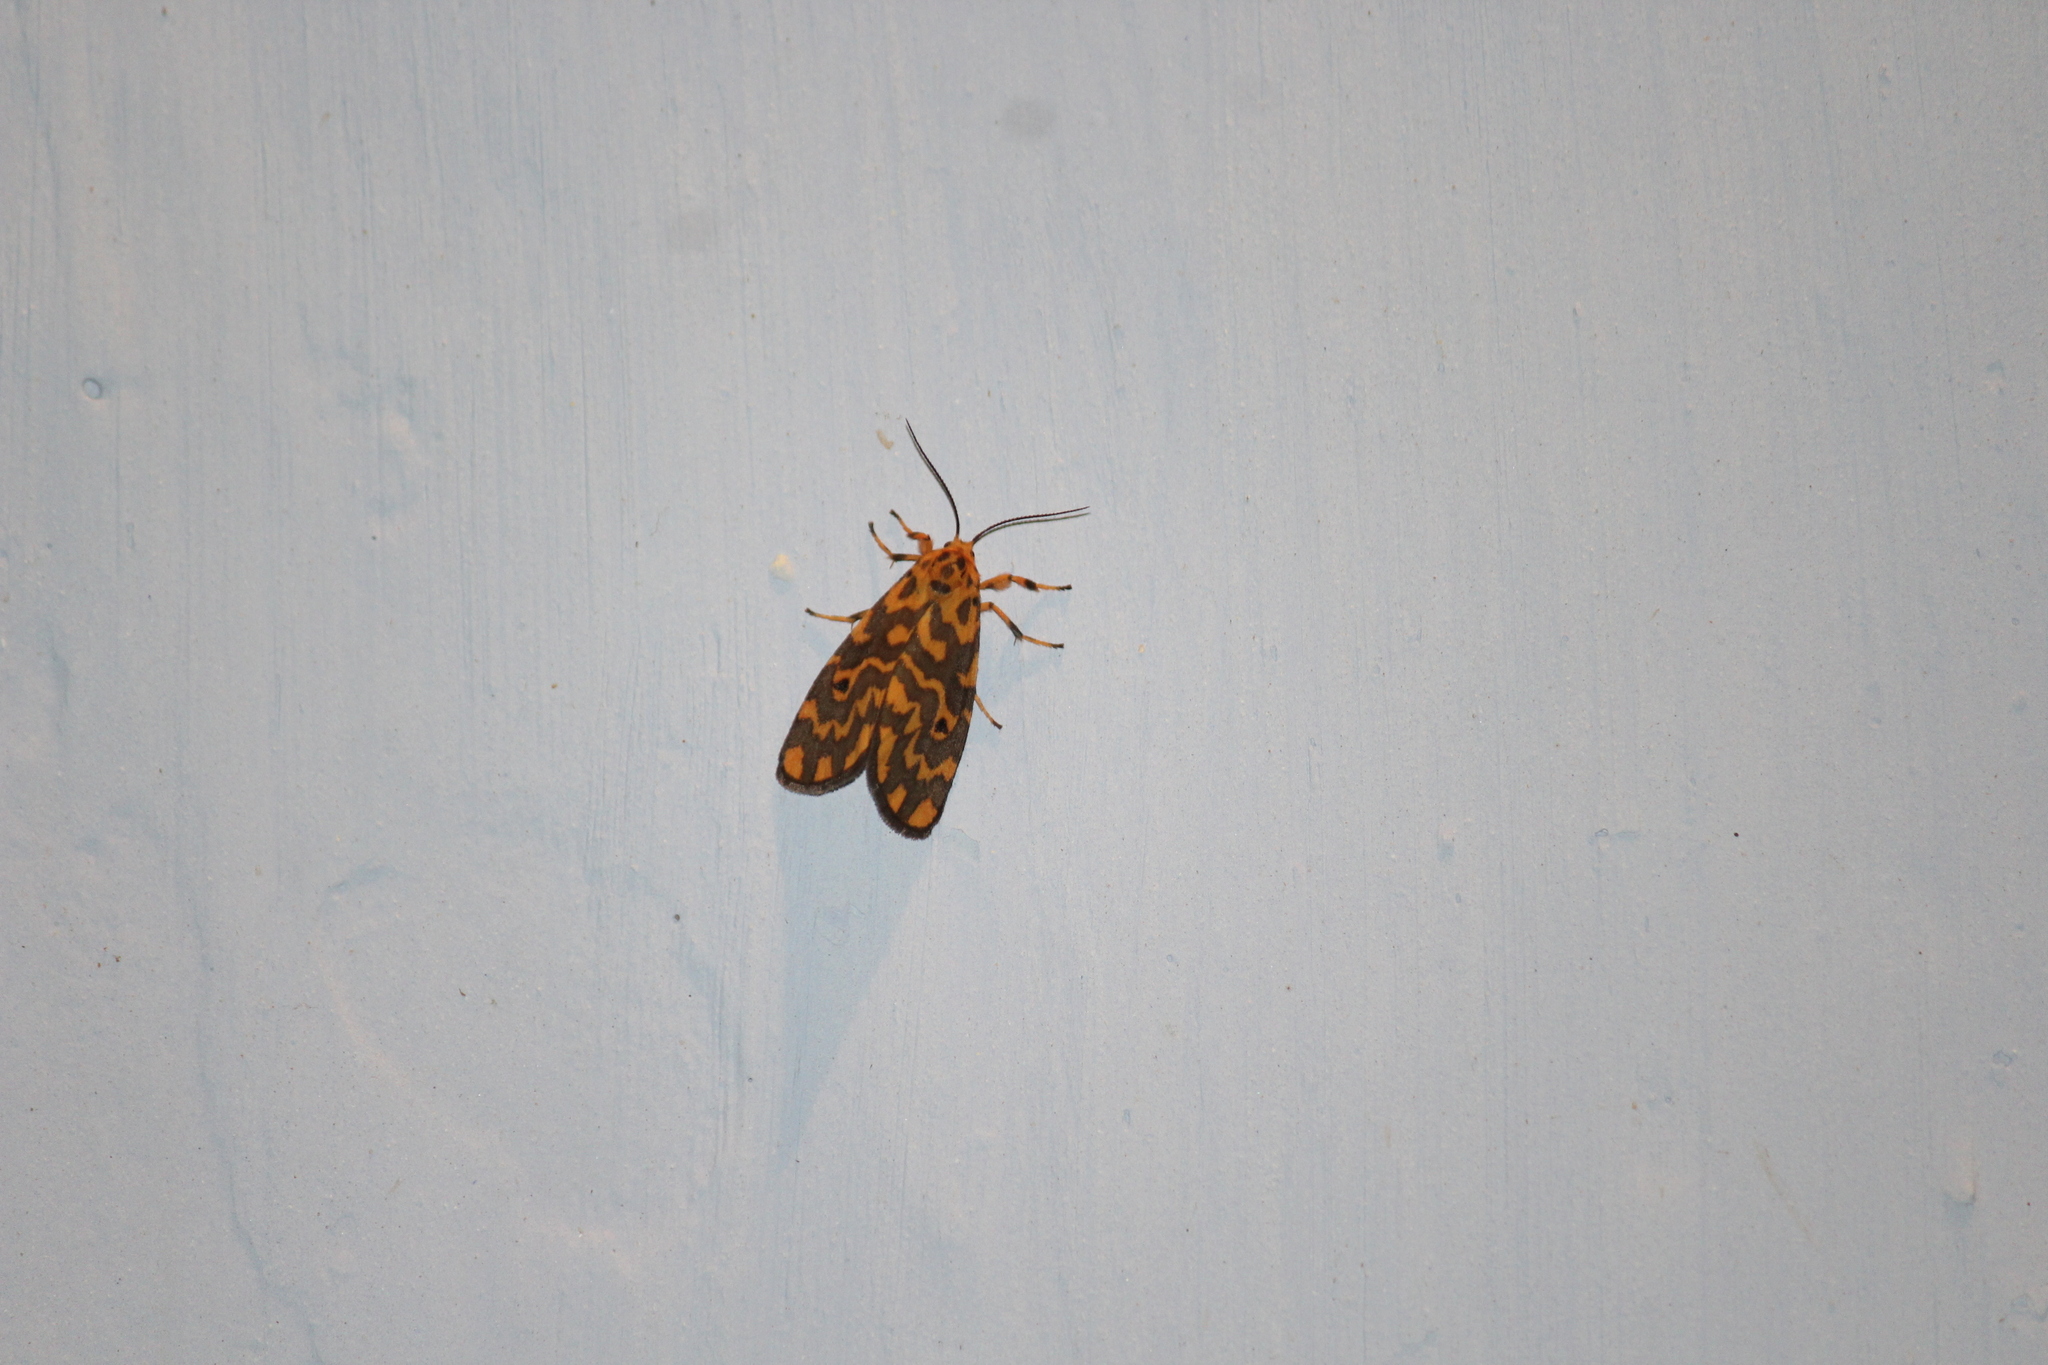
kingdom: Animalia
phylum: Arthropoda
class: Insecta
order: Lepidoptera
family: Erebidae
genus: Nepita
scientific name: Nepita conferta
